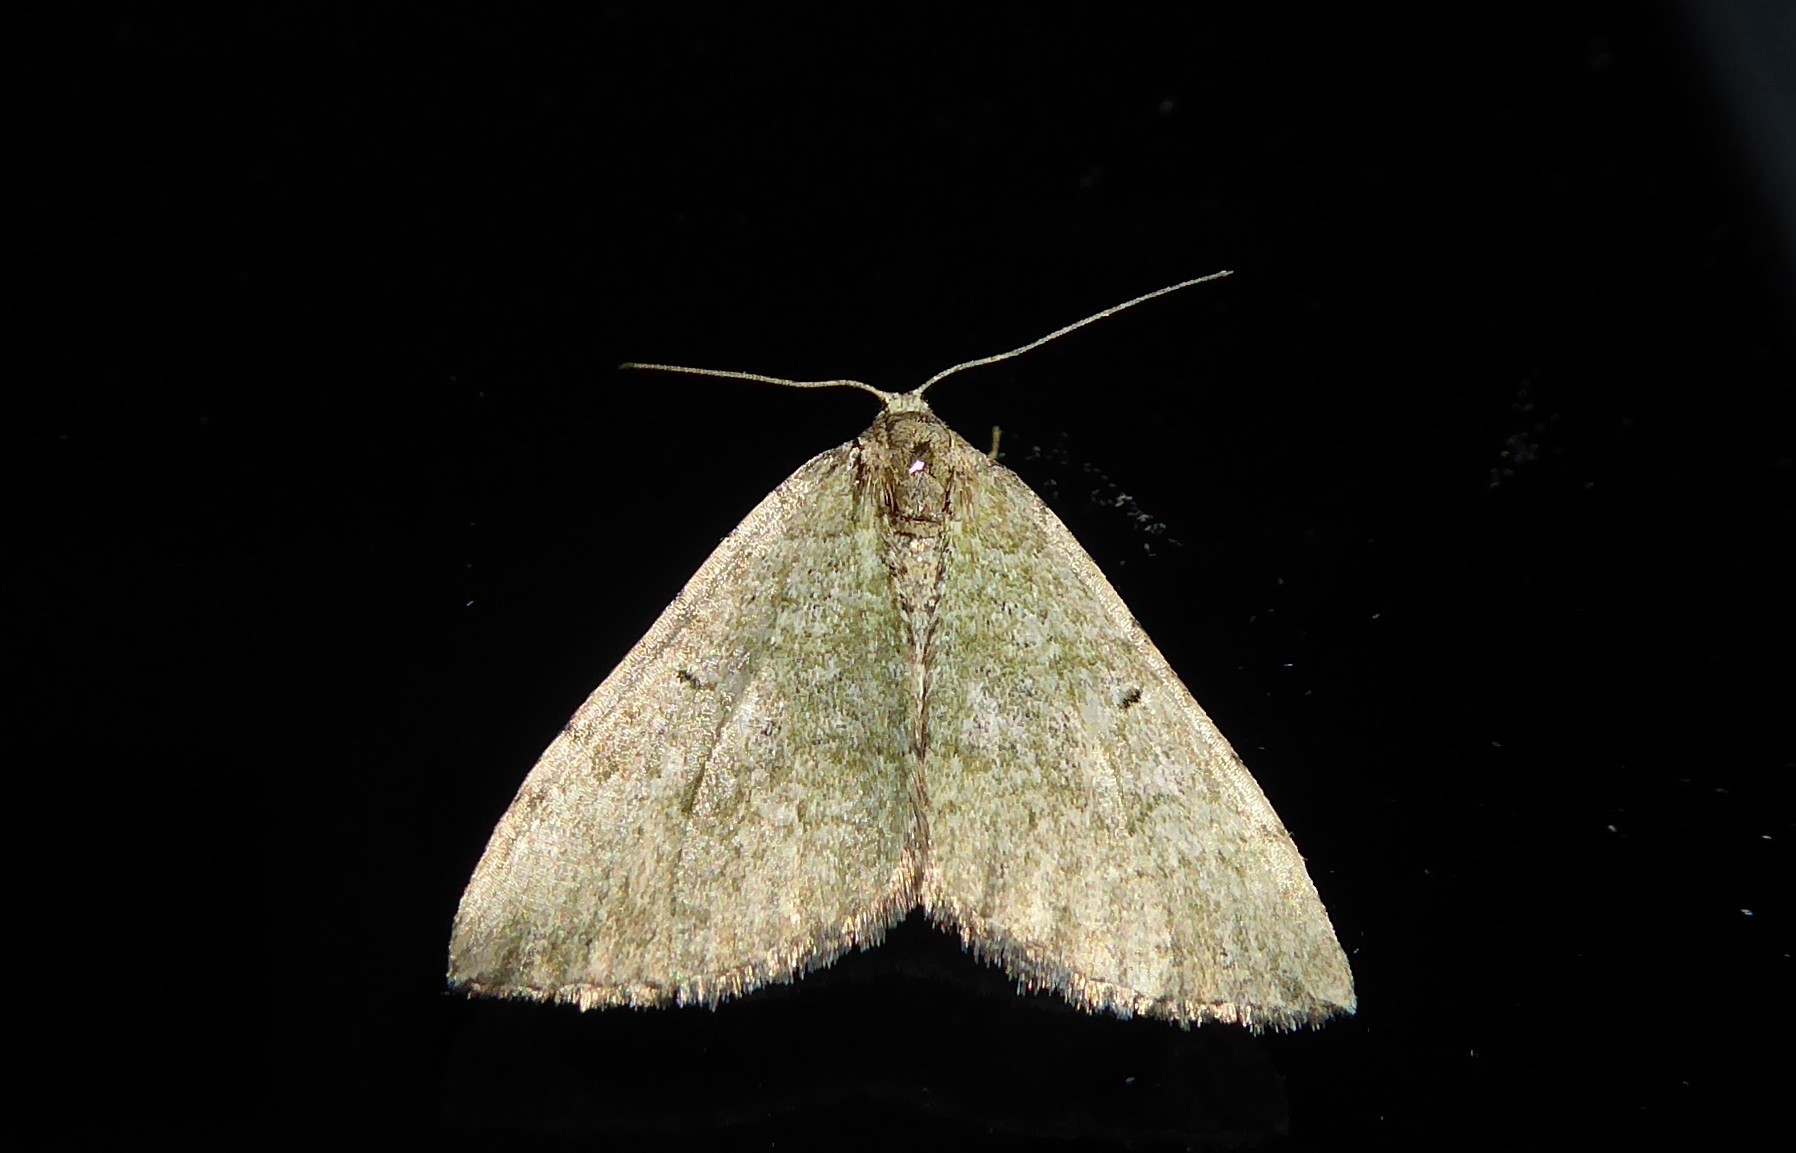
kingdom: Animalia
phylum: Arthropoda
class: Insecta
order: Lepidoptera
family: Geometridae
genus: Epyaxa
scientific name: Epyaxa rosearia
